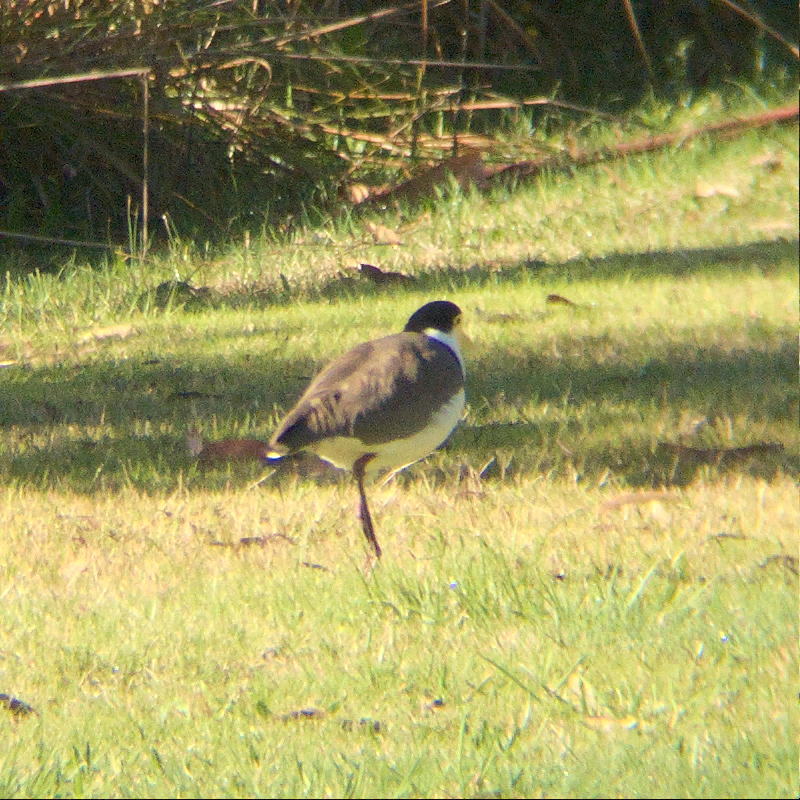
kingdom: Animalia
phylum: Chordata
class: Aves
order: Charadriiformes
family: Charadriidae
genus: Vanellus
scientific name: Vanellus miles
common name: Masked lapwing
